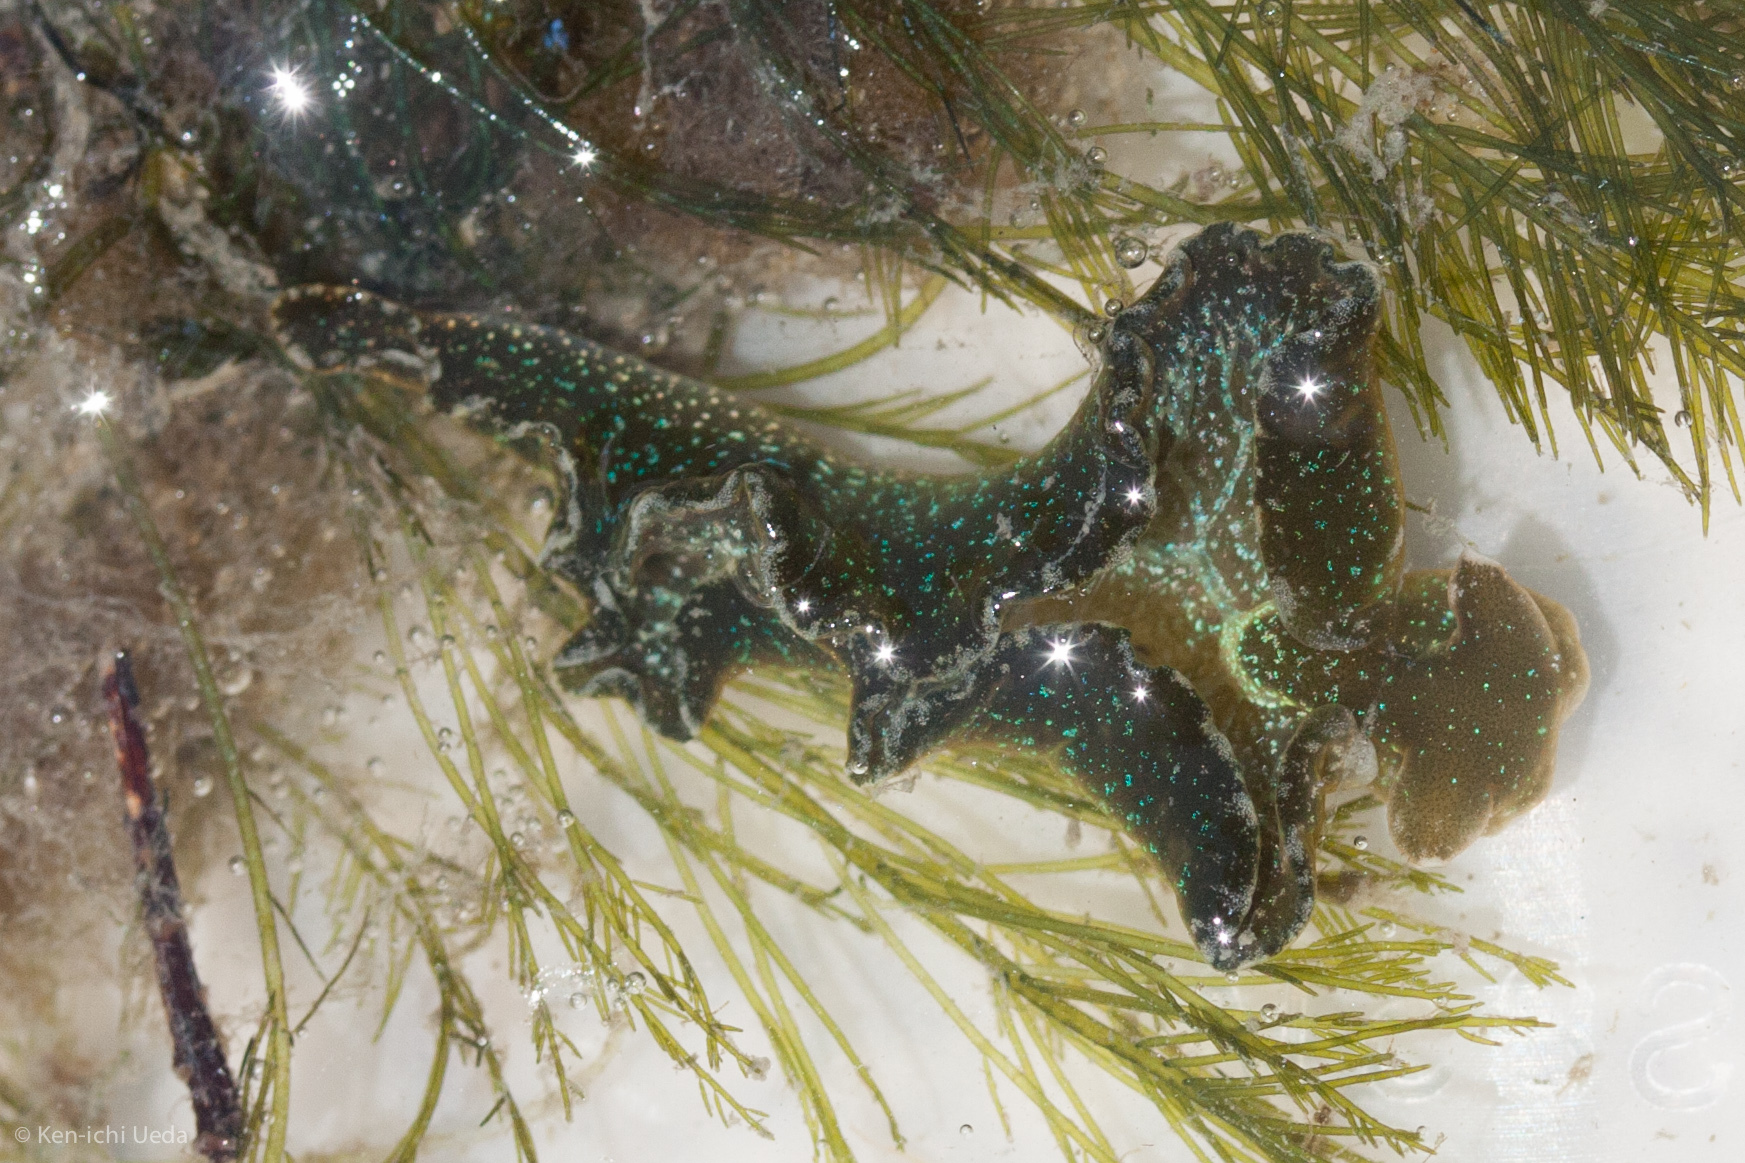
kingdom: Animalia
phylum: Mollusca
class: Gastropoda
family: Plakobranchidae
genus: Elysia
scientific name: Elysia hedgpethi
